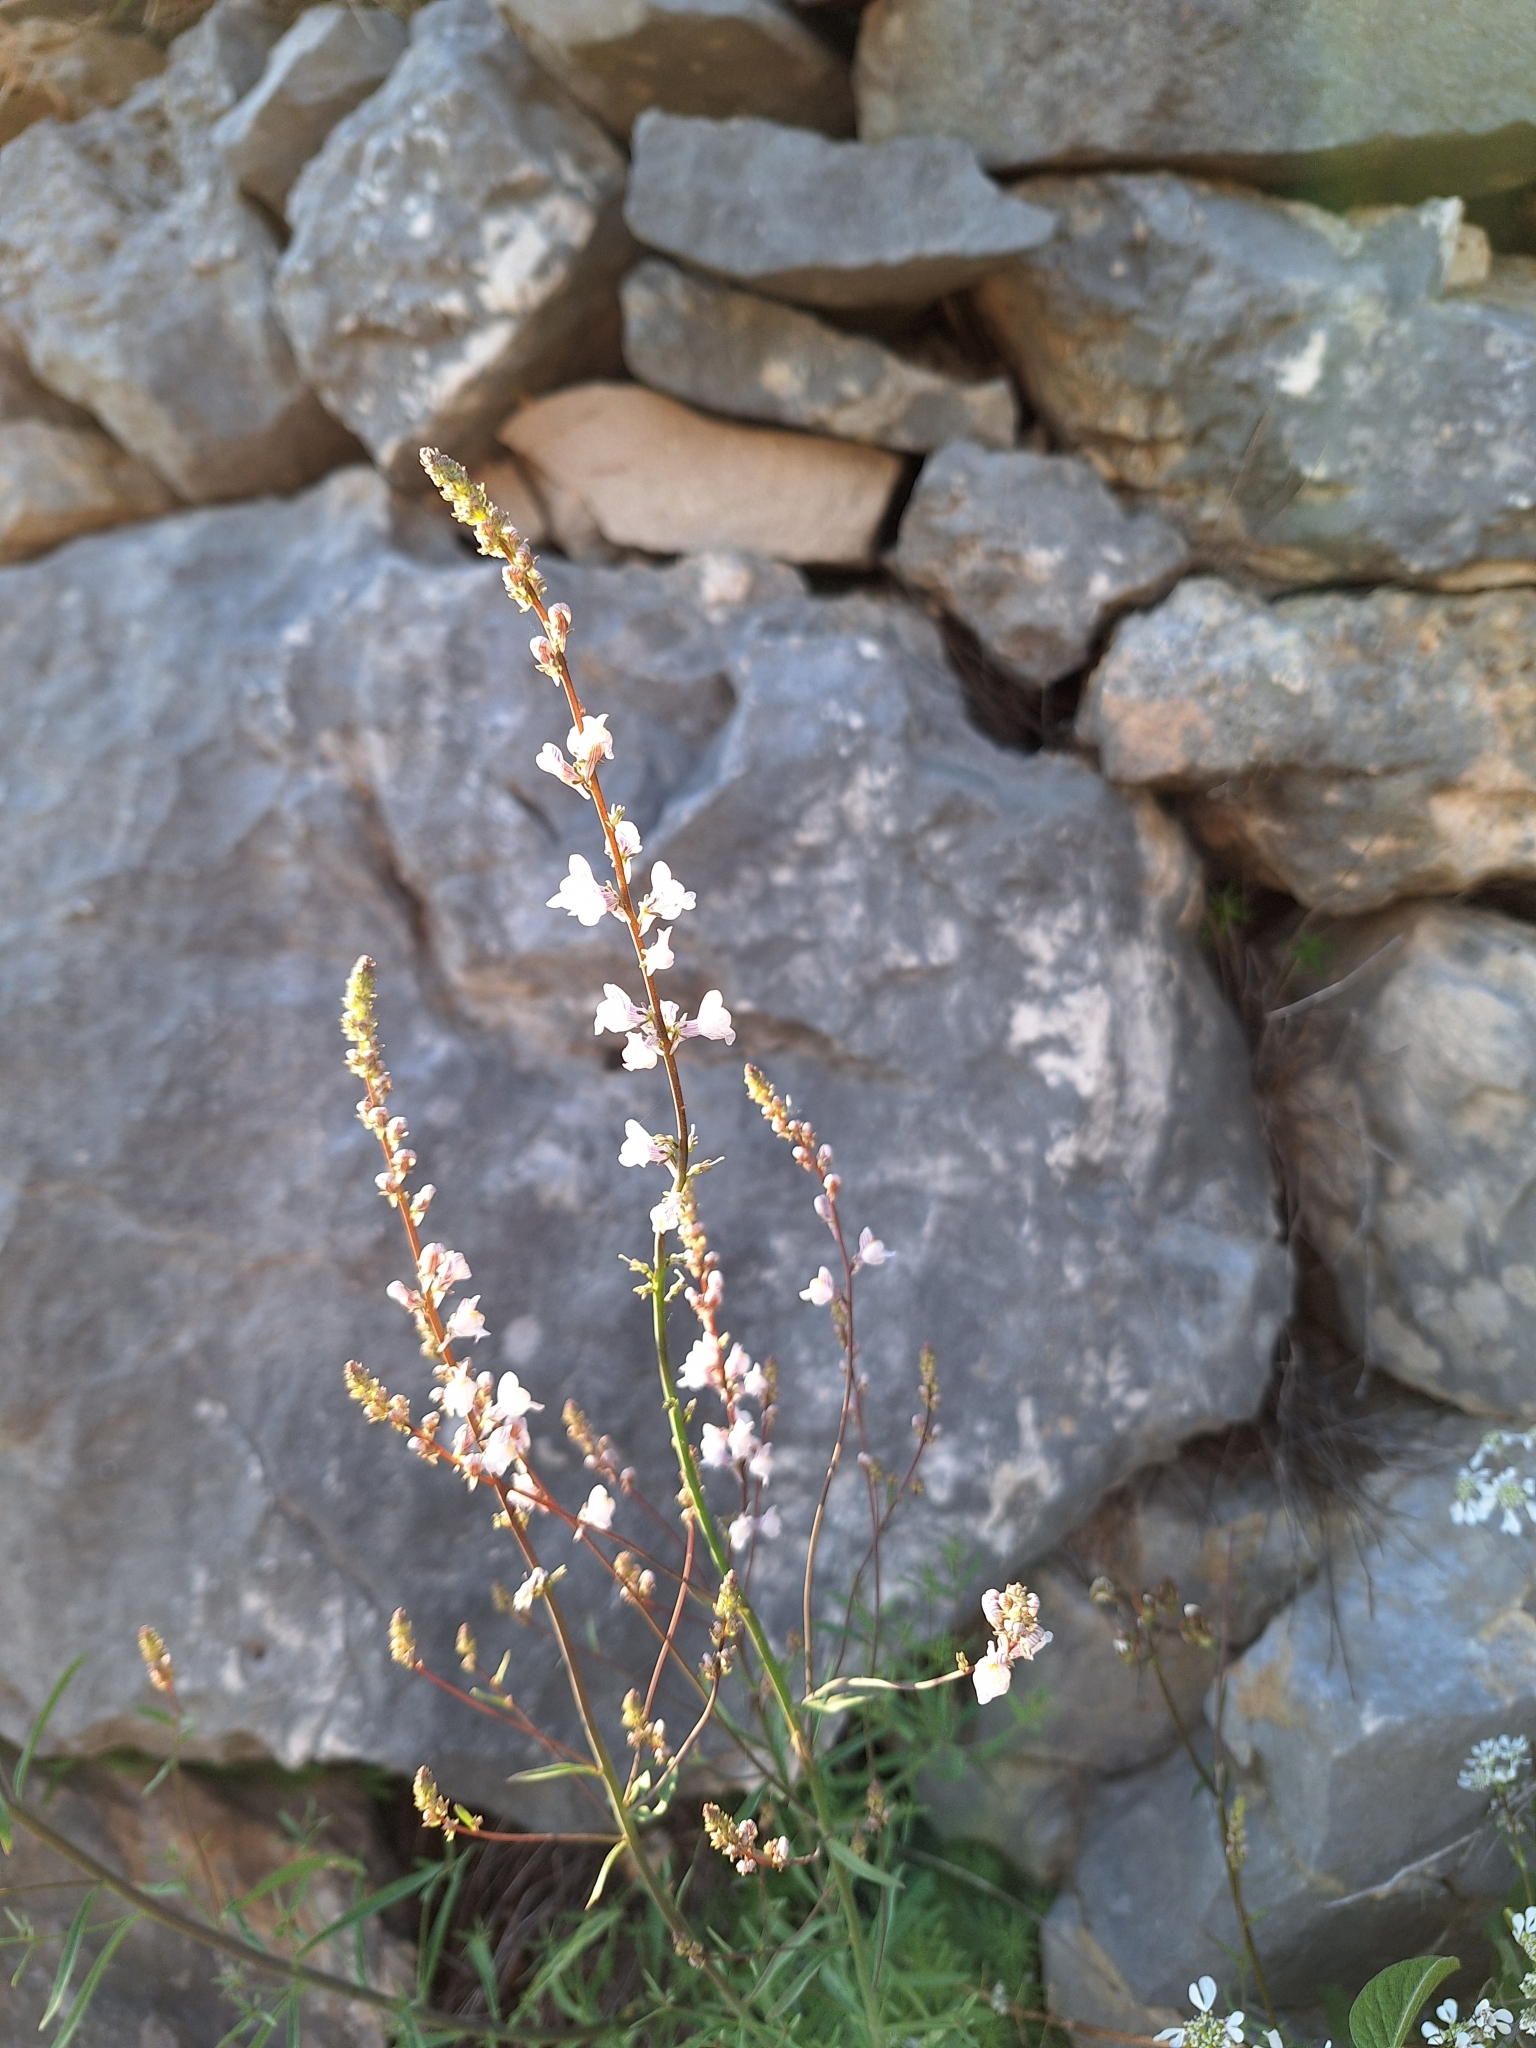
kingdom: Plantae
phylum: Tracheophyta
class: Magnoliopsida
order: Lamiales
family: Plantaginaceae
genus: Linaria
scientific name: Linaria microsepala
